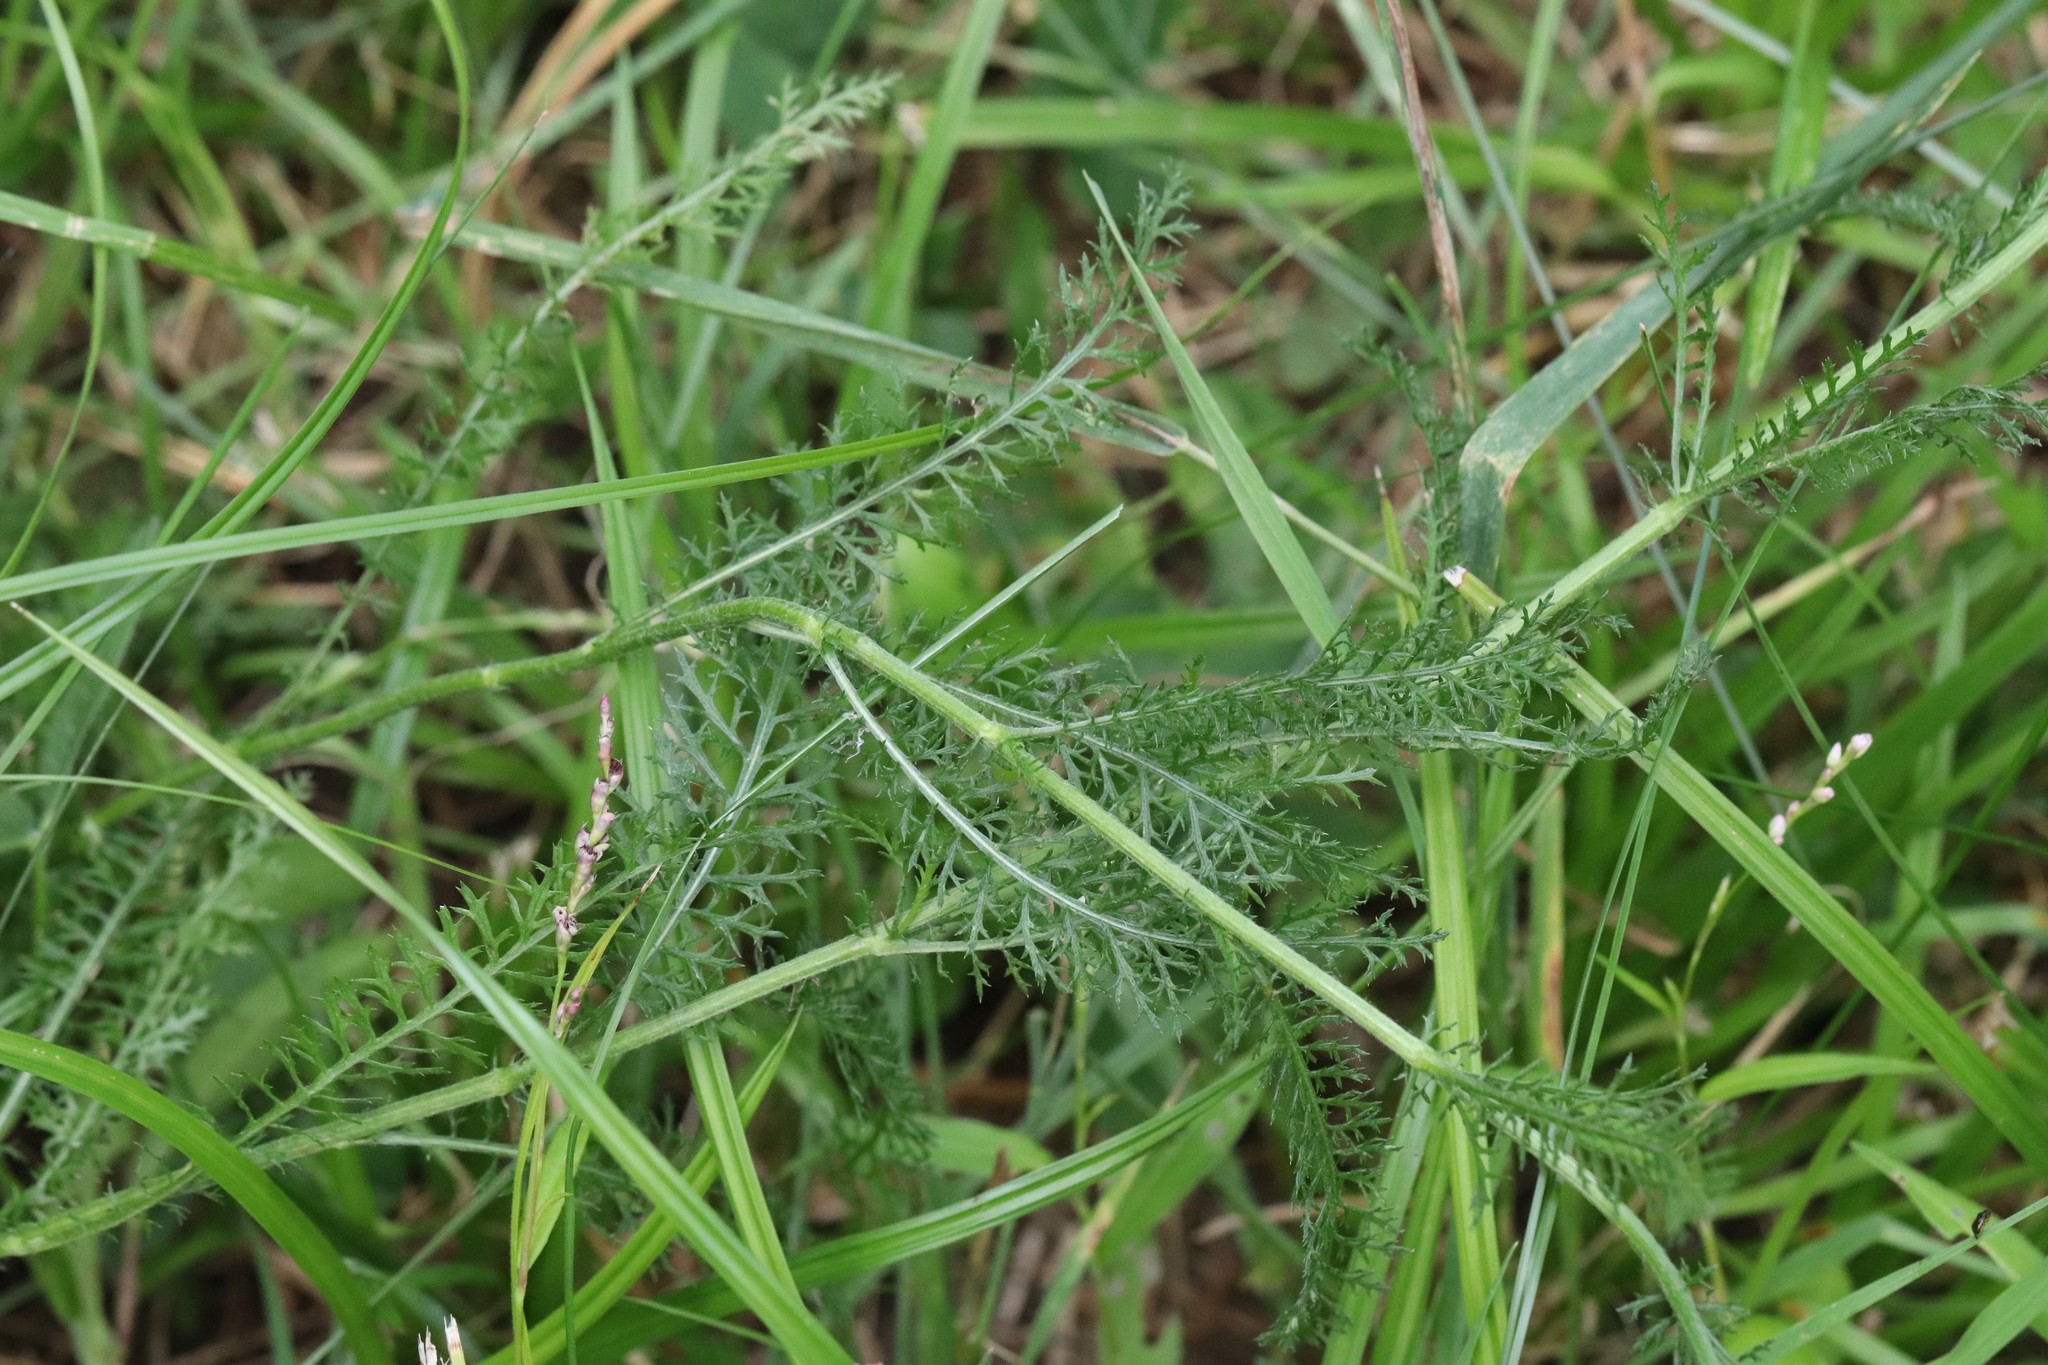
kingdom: Plantae
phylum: Tracheophyta
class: Magnoliopsida
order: Asterales
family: Asteraceae
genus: Achillea
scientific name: Achillea millefolium
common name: Yarrow
